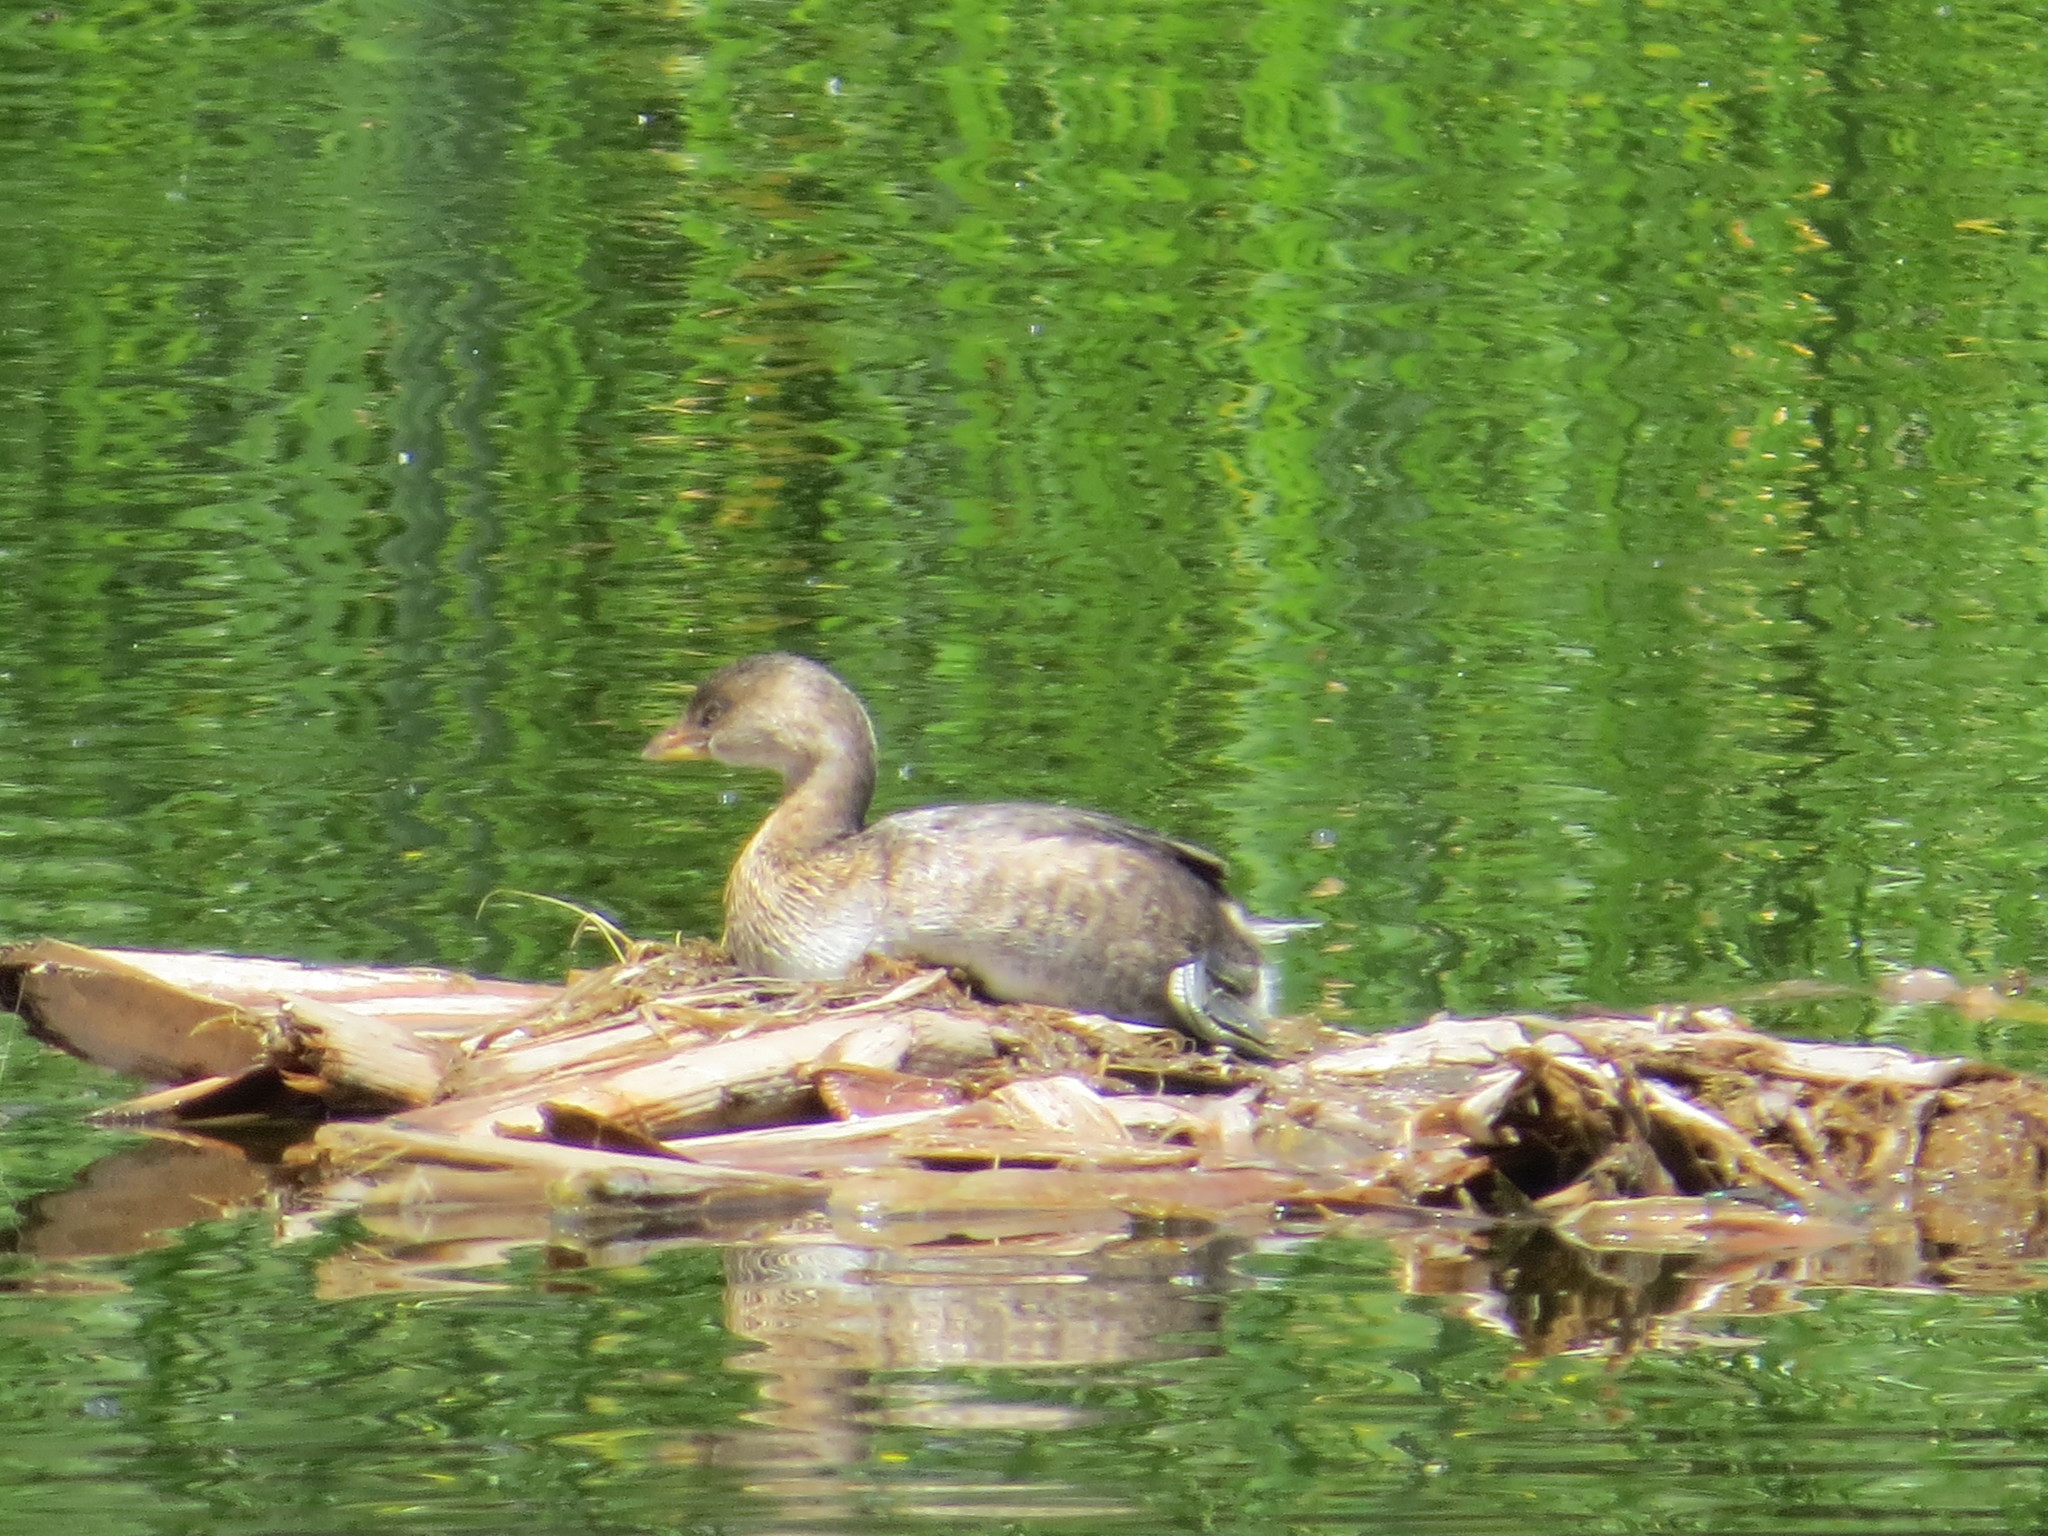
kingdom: Animalia
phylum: Chordata
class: Aves
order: Podicipediformes
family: Podicipedidae
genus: Podilymbus
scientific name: Podilymbus podiceps
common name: Pied-billed grebe
